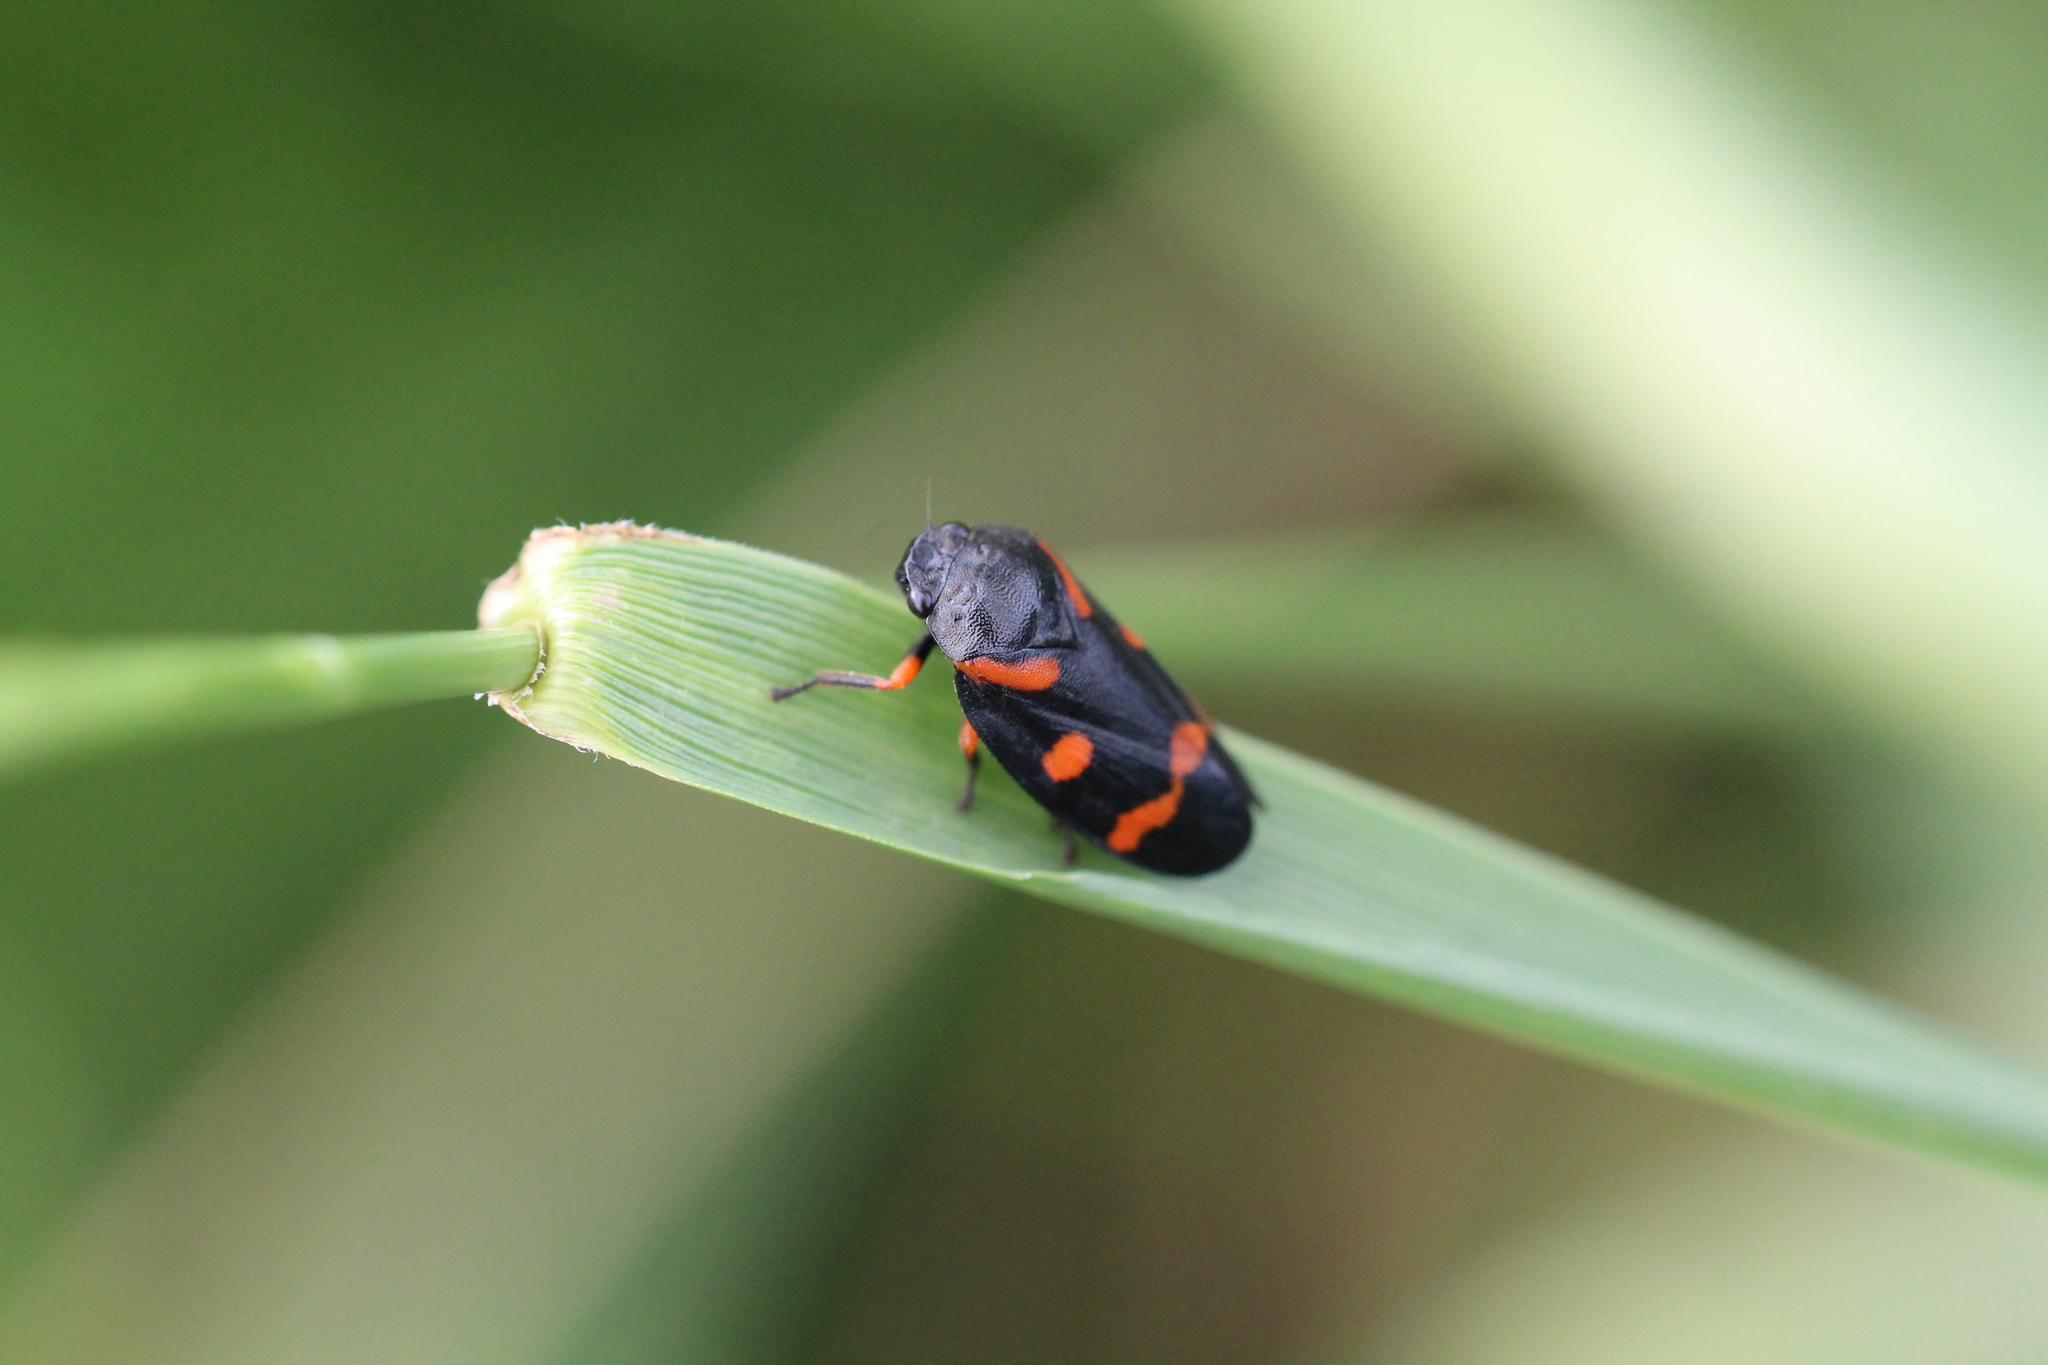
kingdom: Animalia
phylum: Arthropoda
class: Insecta
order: Hemiptera
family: Cercopidae
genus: Cercopis
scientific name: Cercopis intermedia
